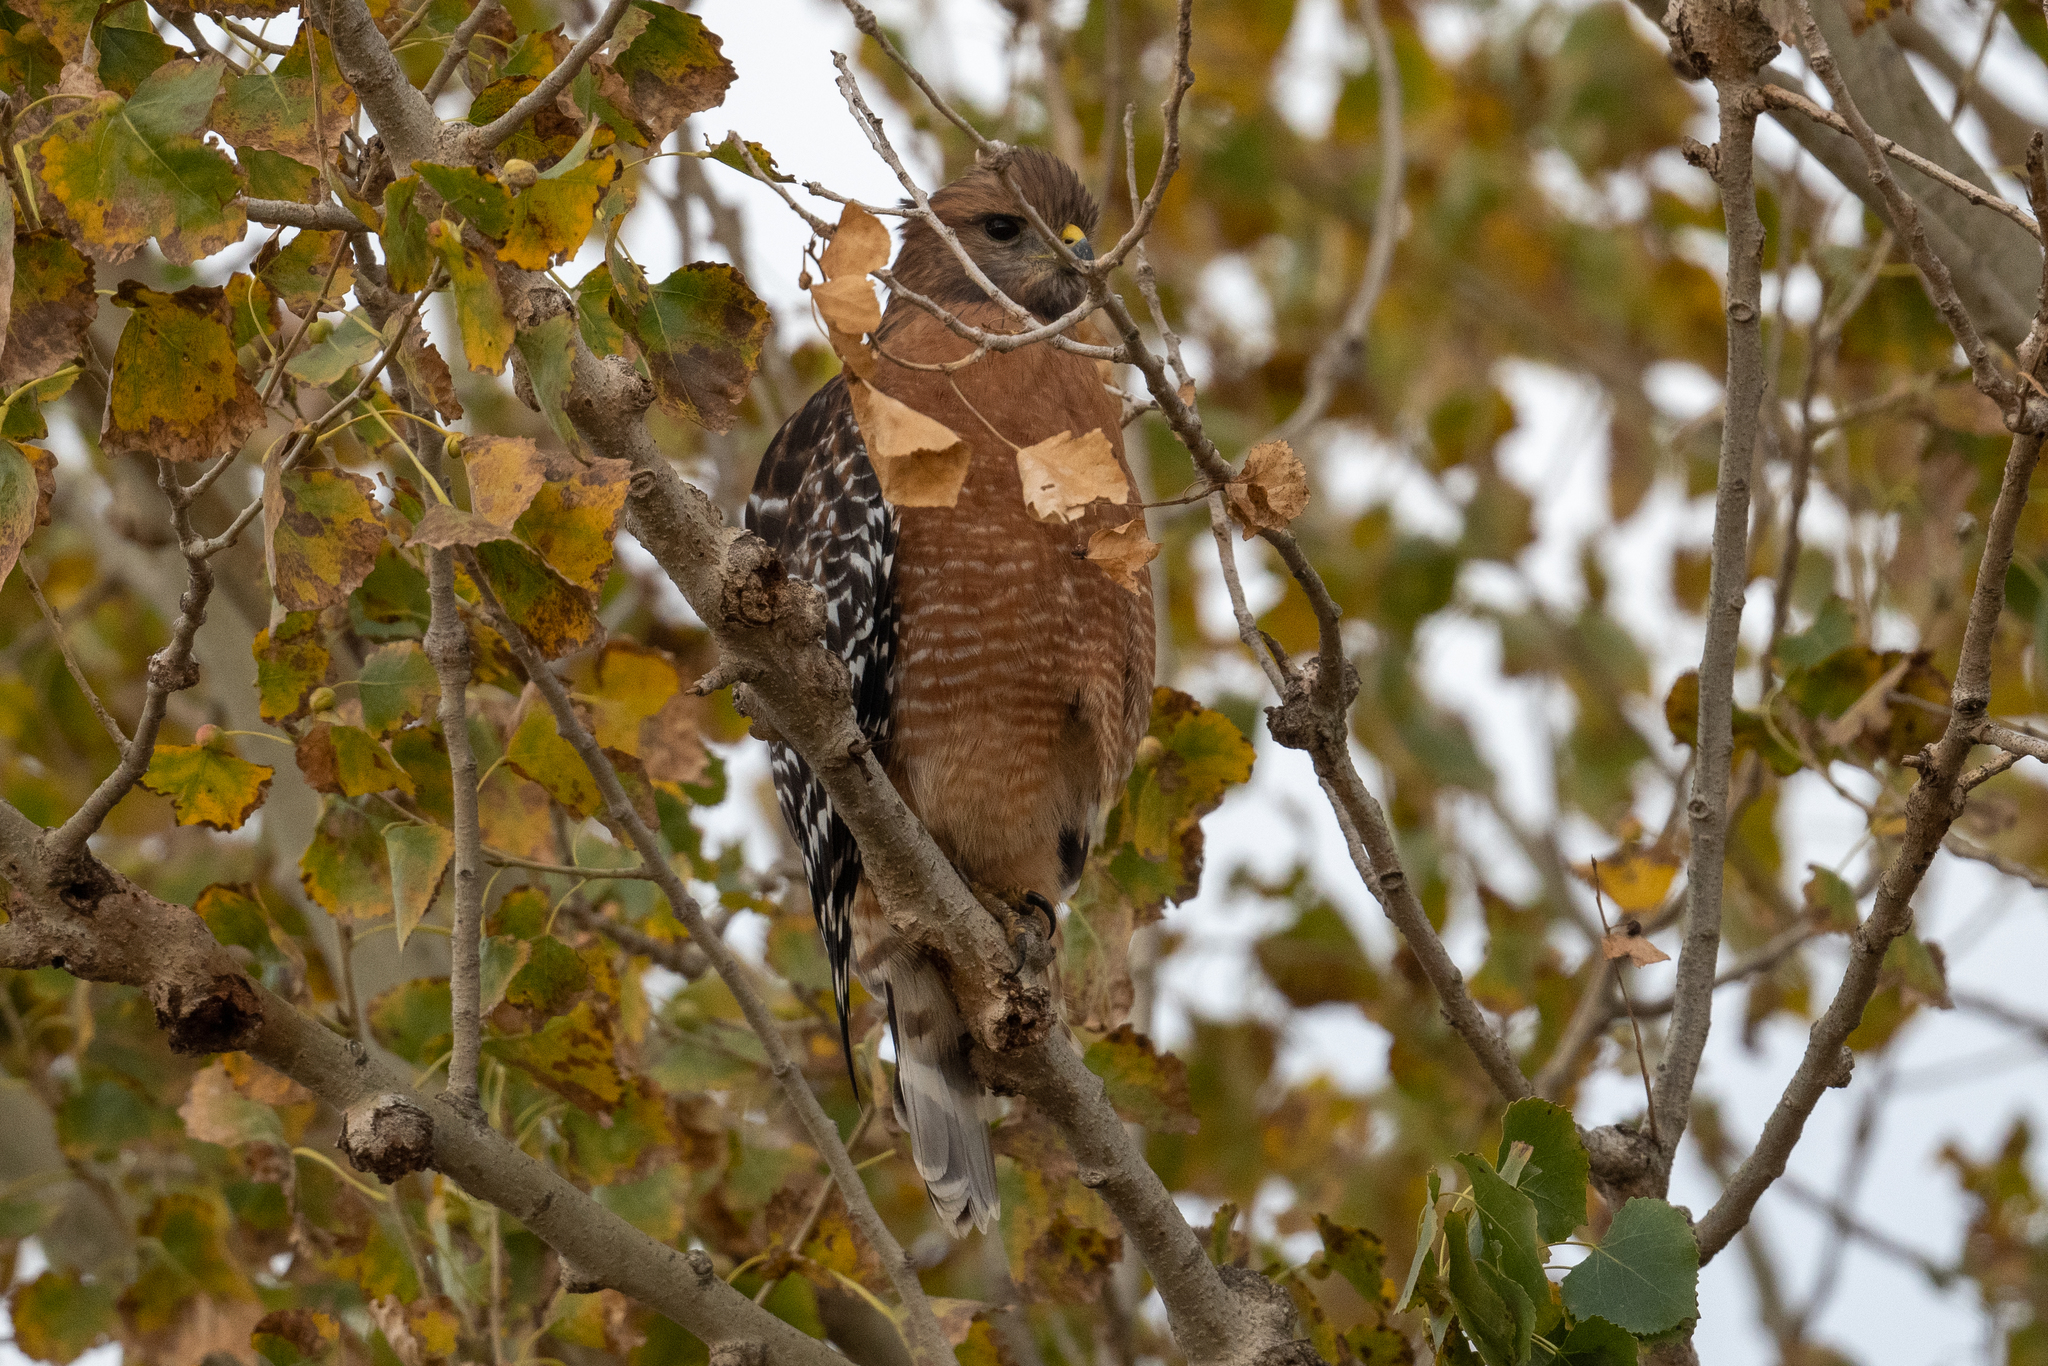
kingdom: Animalia
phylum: Chordata
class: Aves
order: Accipitriformes
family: Accipitridae
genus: Buteo
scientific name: Buteo lineatus
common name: Red-shouldered hawk
